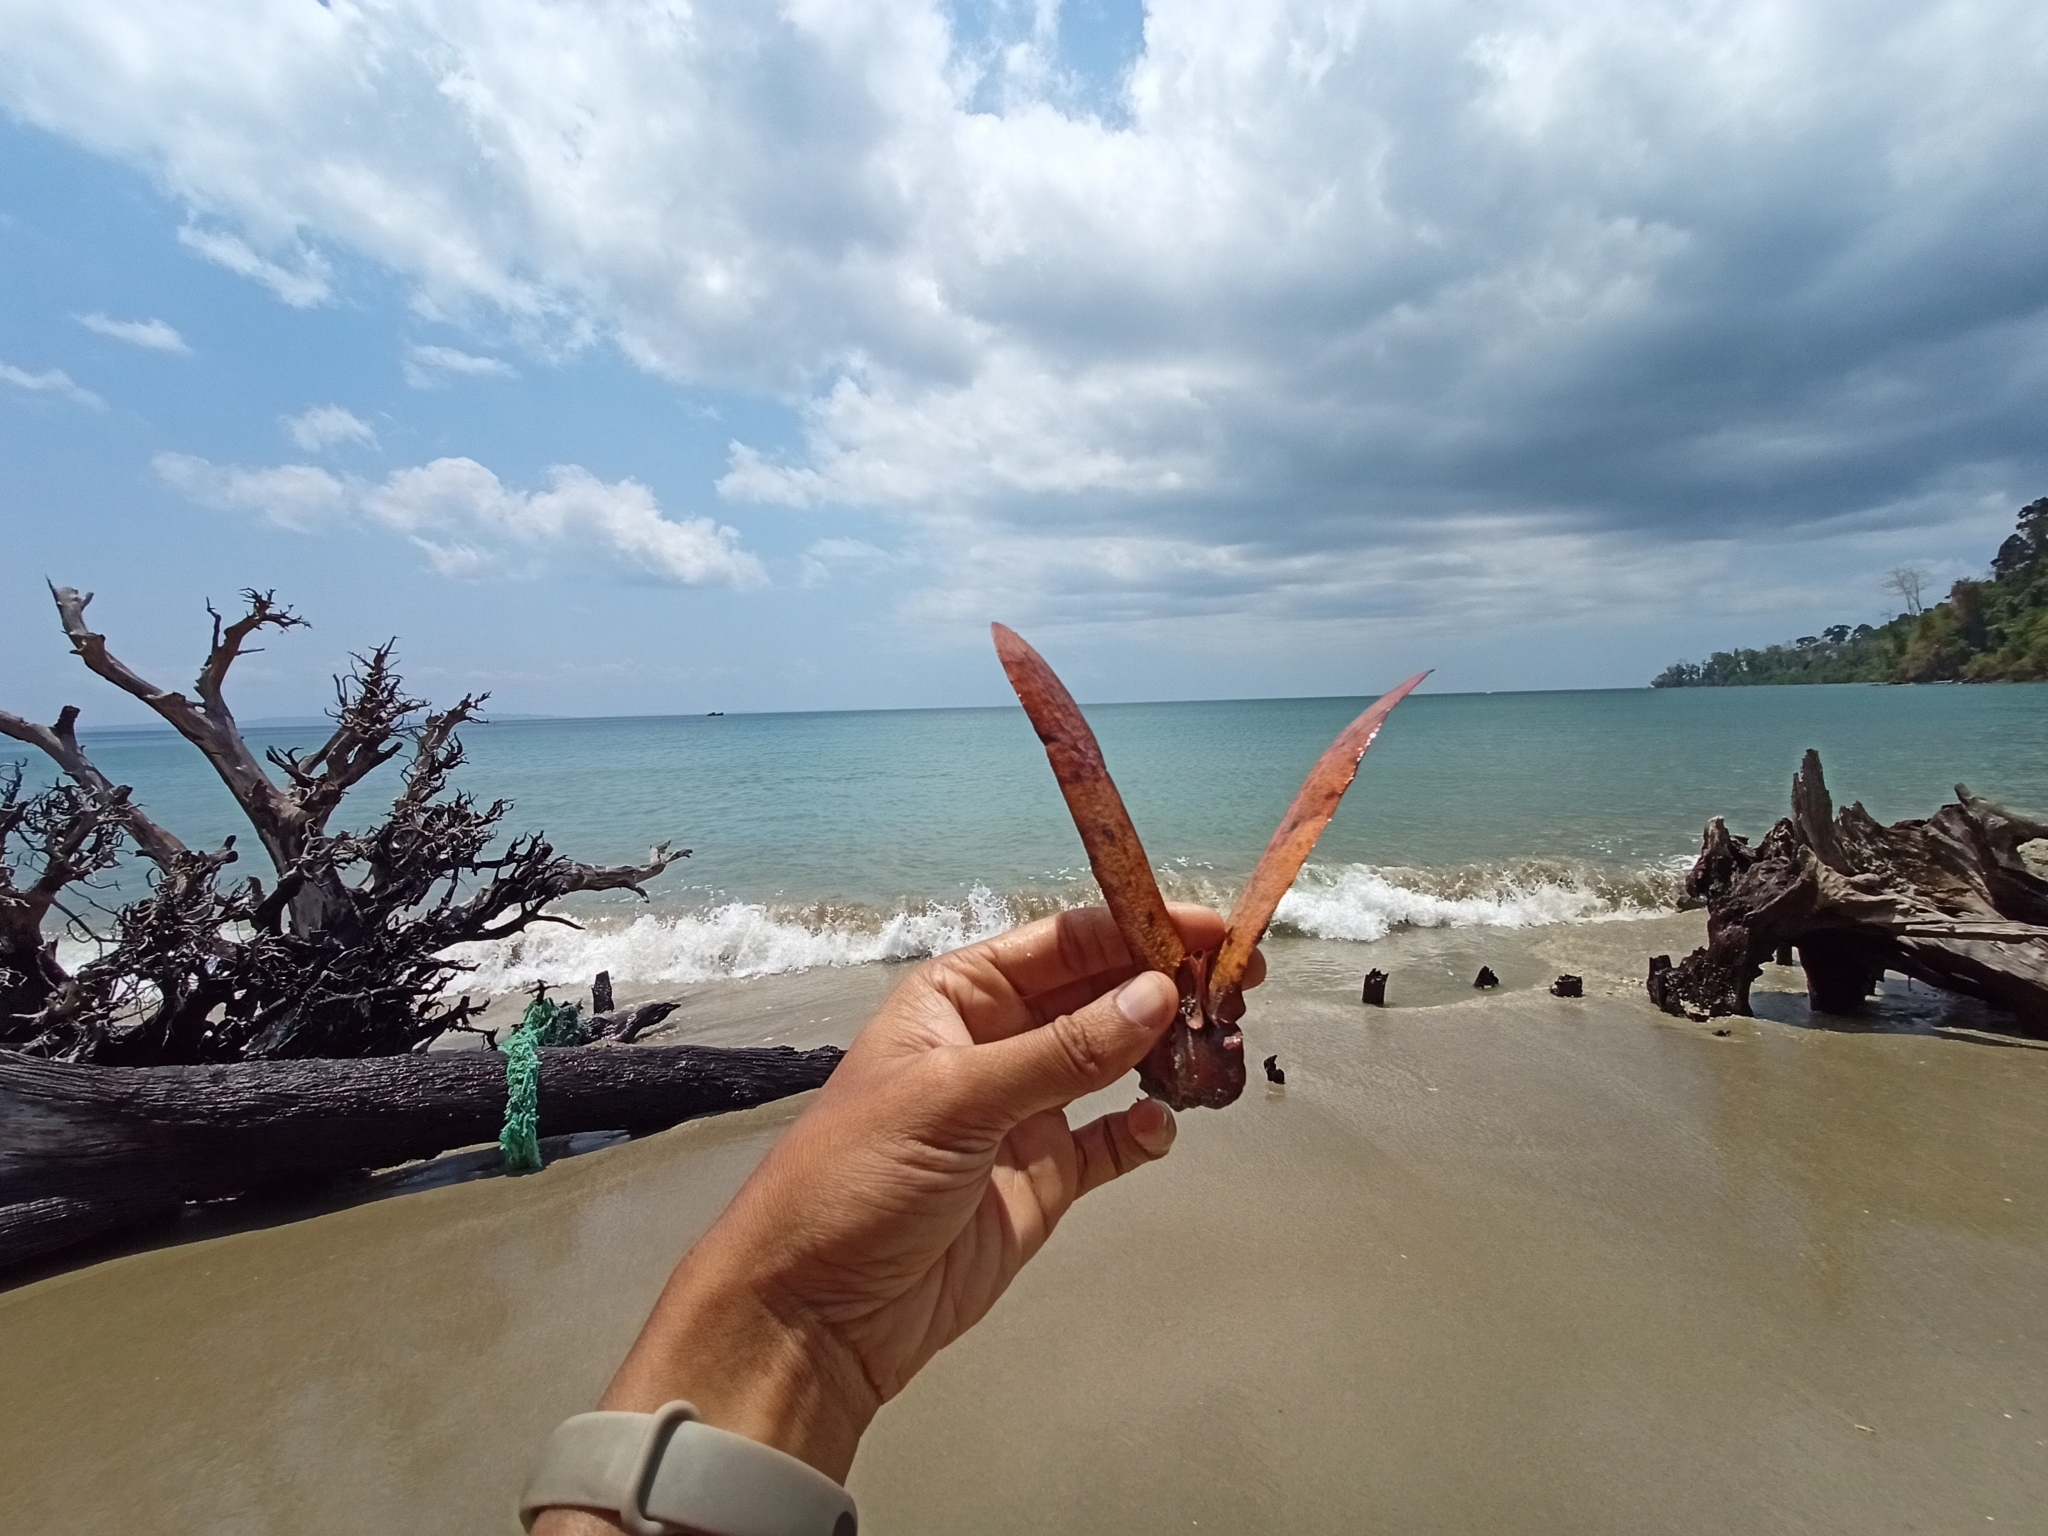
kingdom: Plantae
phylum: Tracheophyta
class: Magnoliopsida
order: Malvales
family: Dipterocarpaceae
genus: Dipterocarpus
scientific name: Dipterocarpus alatus
